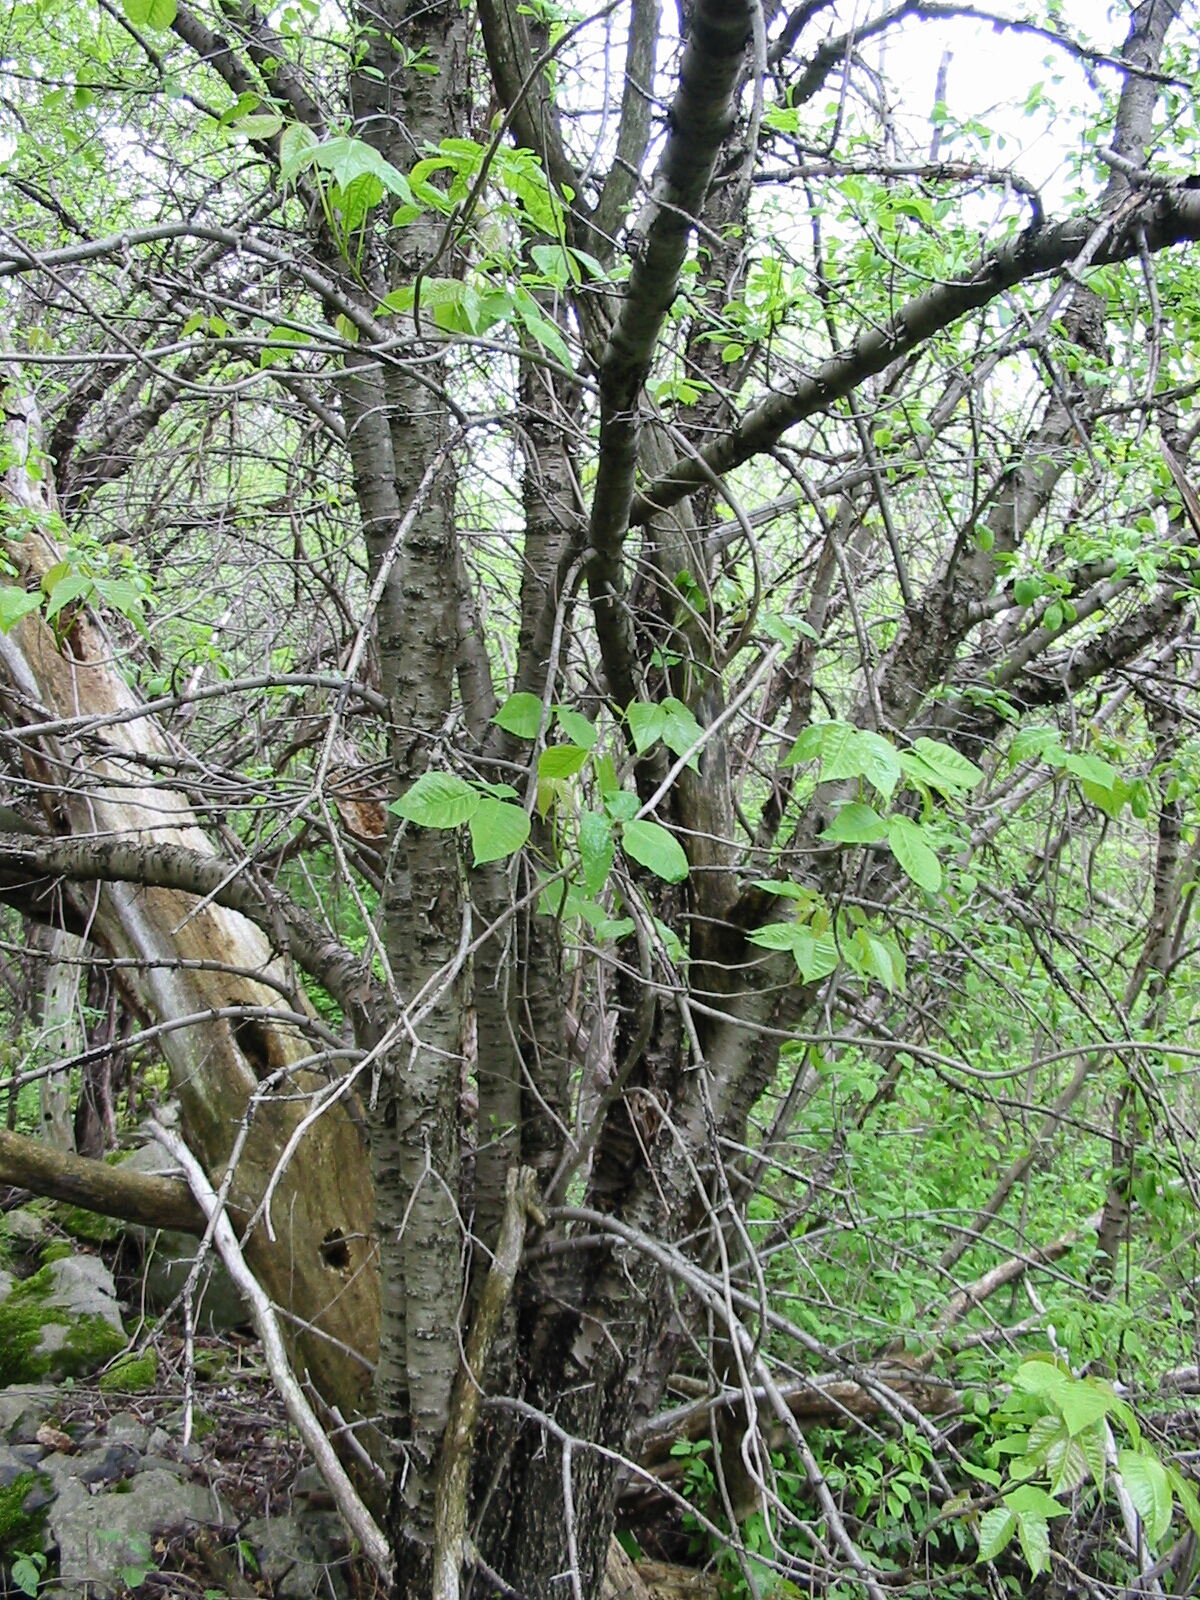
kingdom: Plantae
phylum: Tracheophyta
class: Magnoliopsida
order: Sapindales
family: Anacardiaceae
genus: Toxicodendron
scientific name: Toxicodendron radicans
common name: Poison ivy
